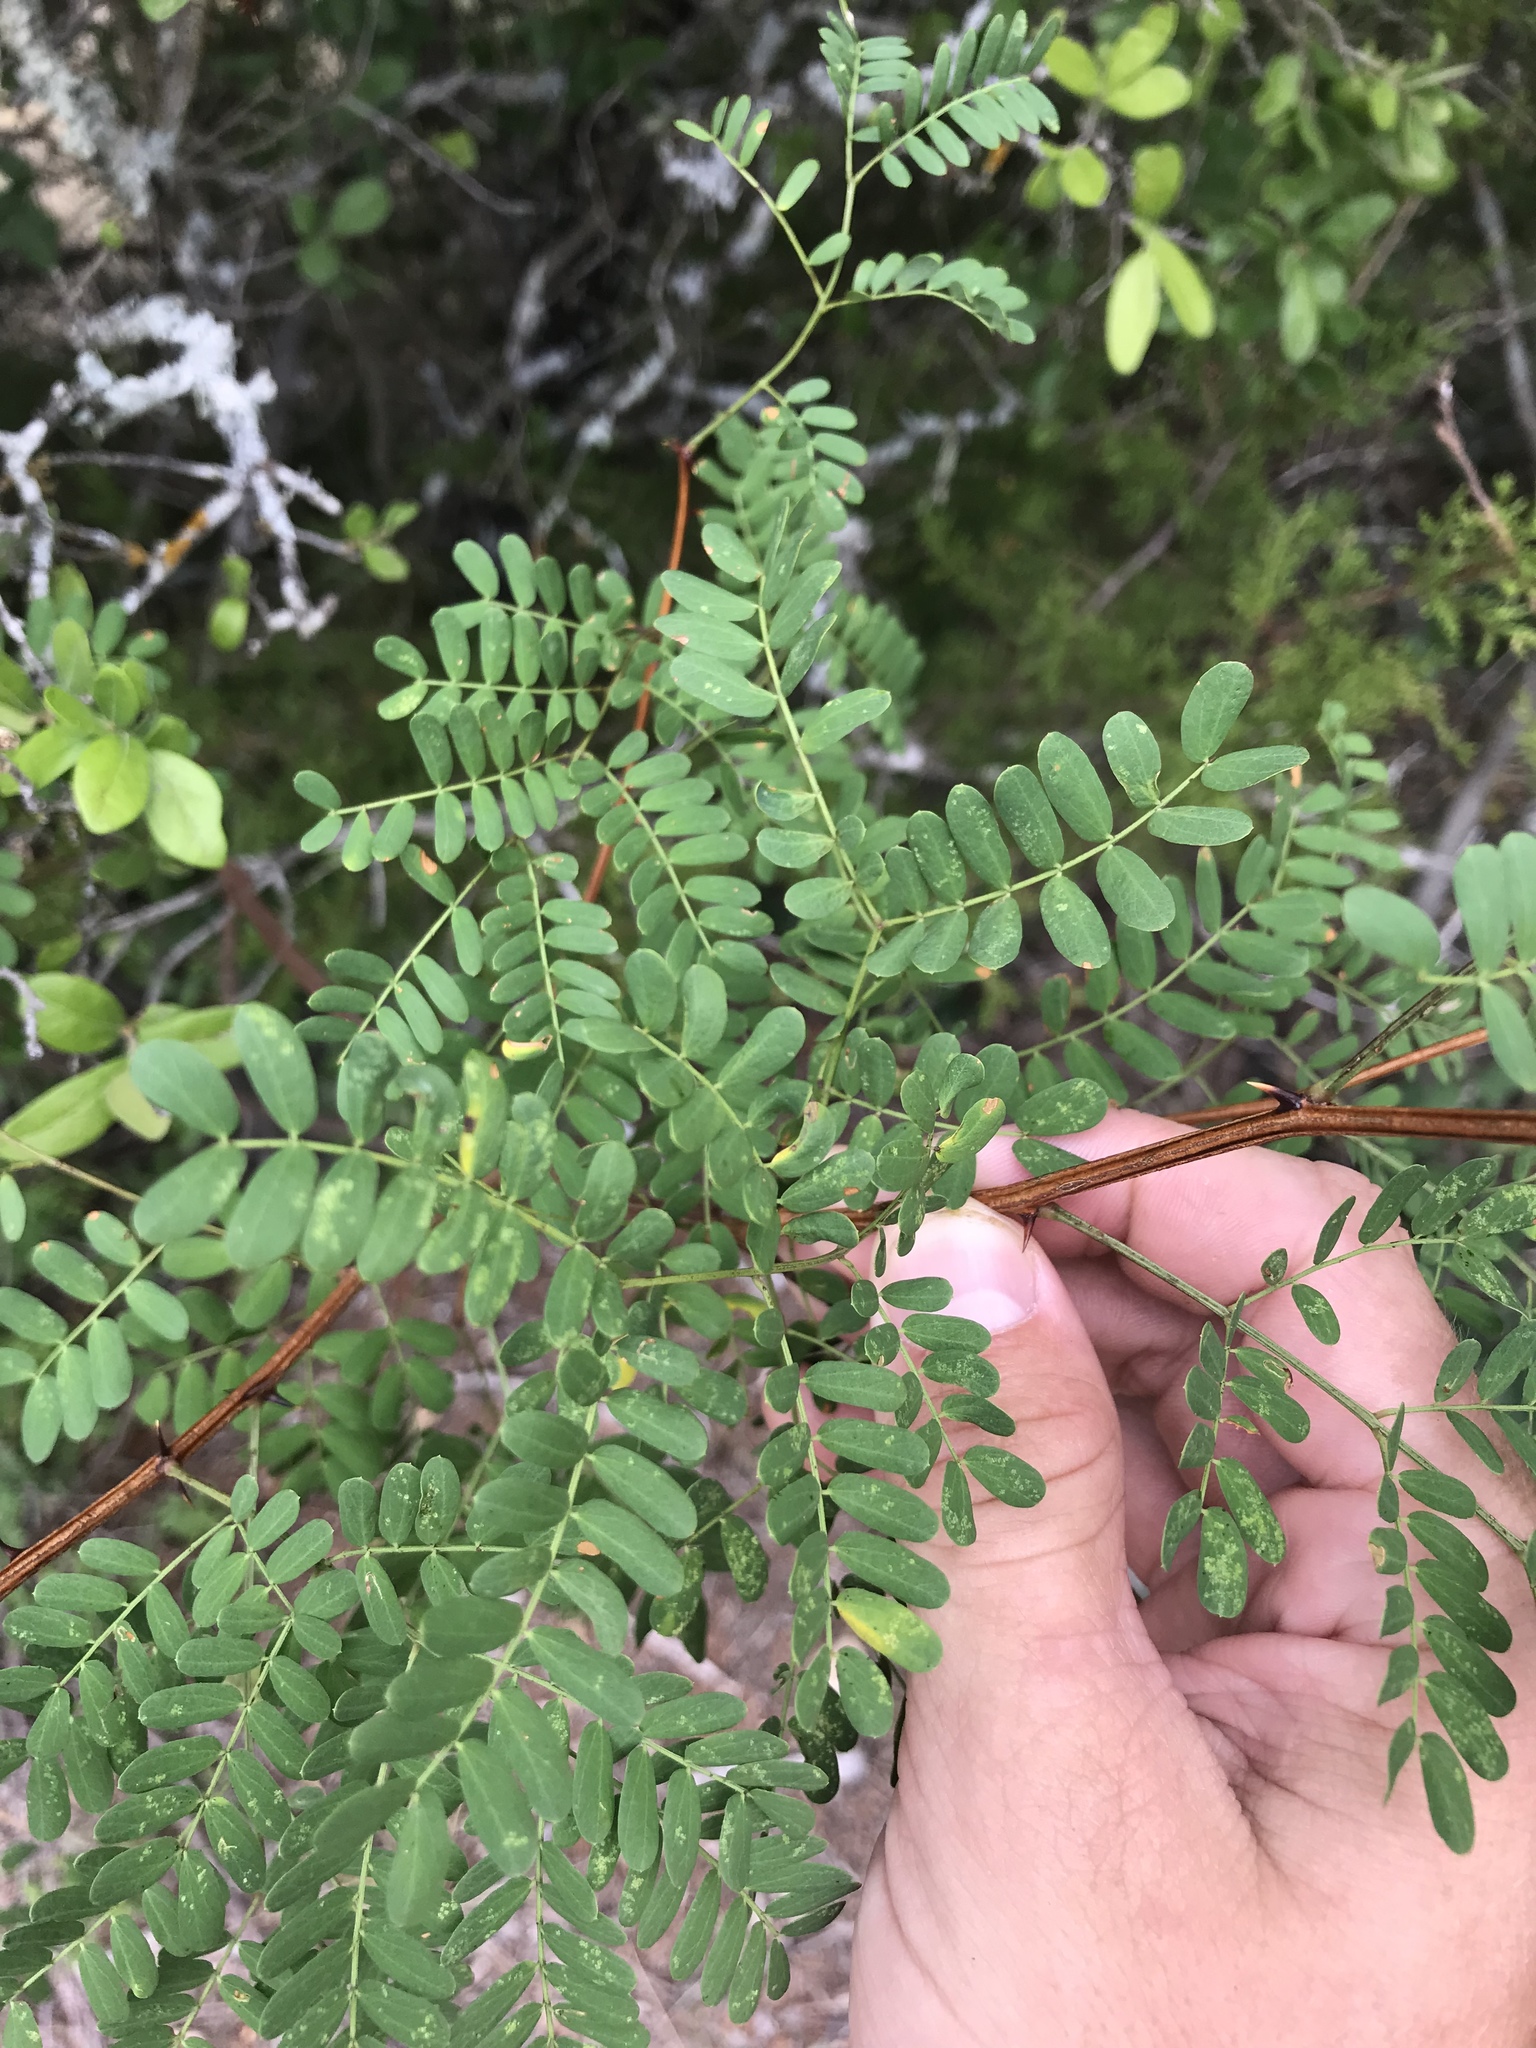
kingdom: Plantae
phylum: Tracheophyta
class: Magnoliopsida
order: Fabales
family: Fabaceae
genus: Senegalia
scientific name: Senegalia roemeriana
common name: Roemer's acacia
